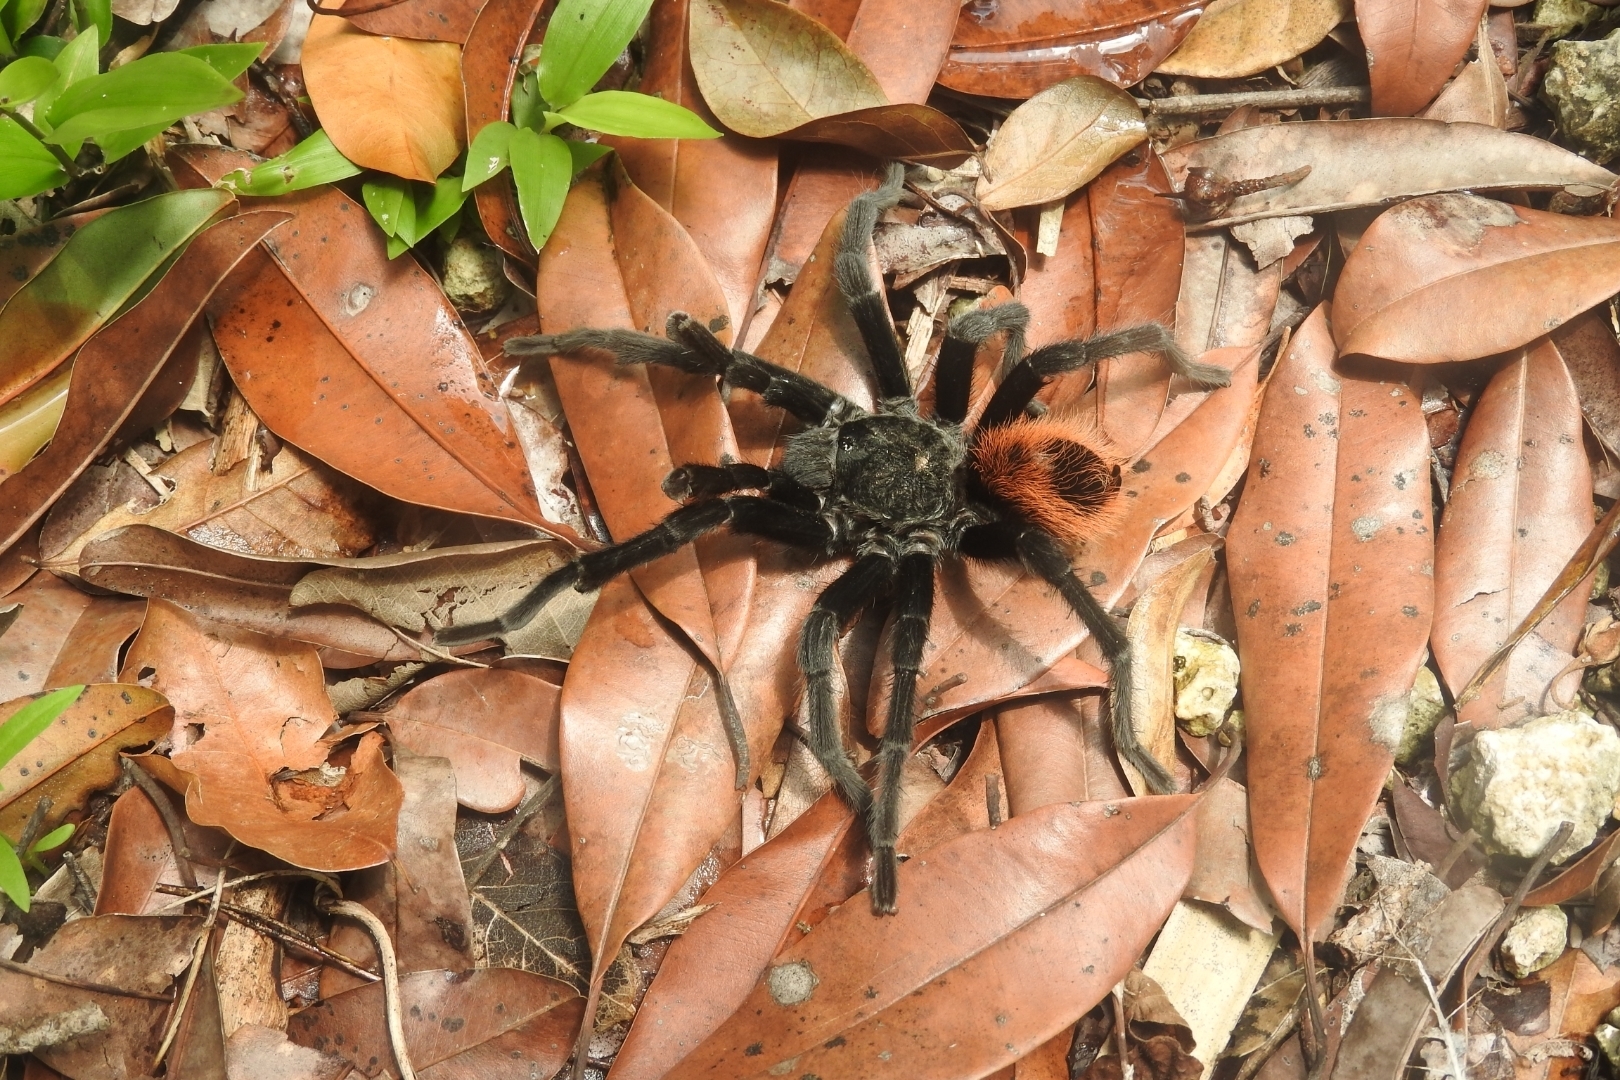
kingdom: Animalia
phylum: Arthropoda
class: Arachnida
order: Araneae
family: Theraphosidae
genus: Tliltocatl
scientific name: Tliltocatl epicureanus
